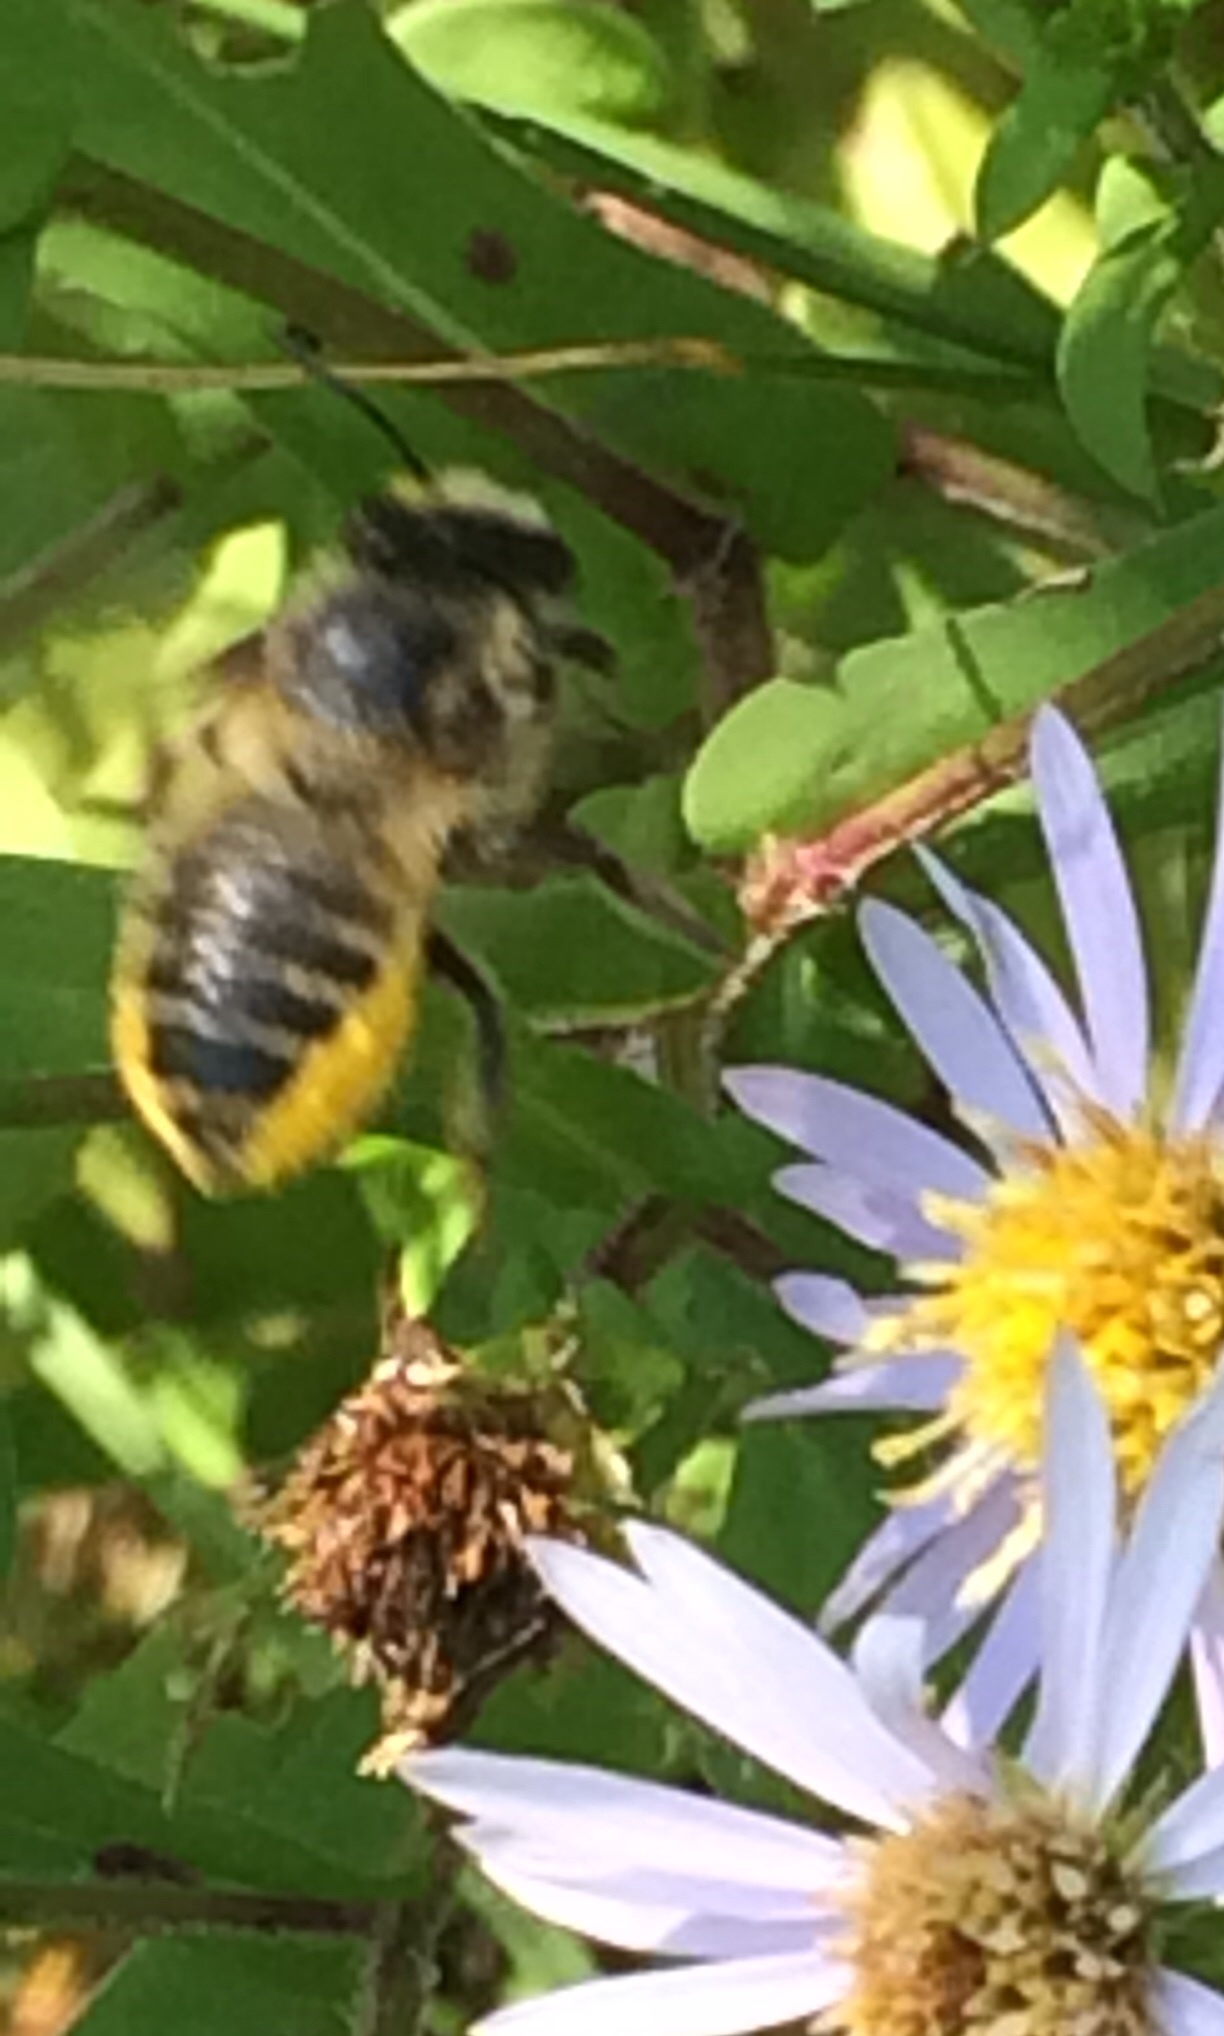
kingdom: Animalia
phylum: Arthropoda
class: Insecta
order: Hymenoptera
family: Megachilidae
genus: Megachile
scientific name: Megachile latimanus
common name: Leafcutting bee
